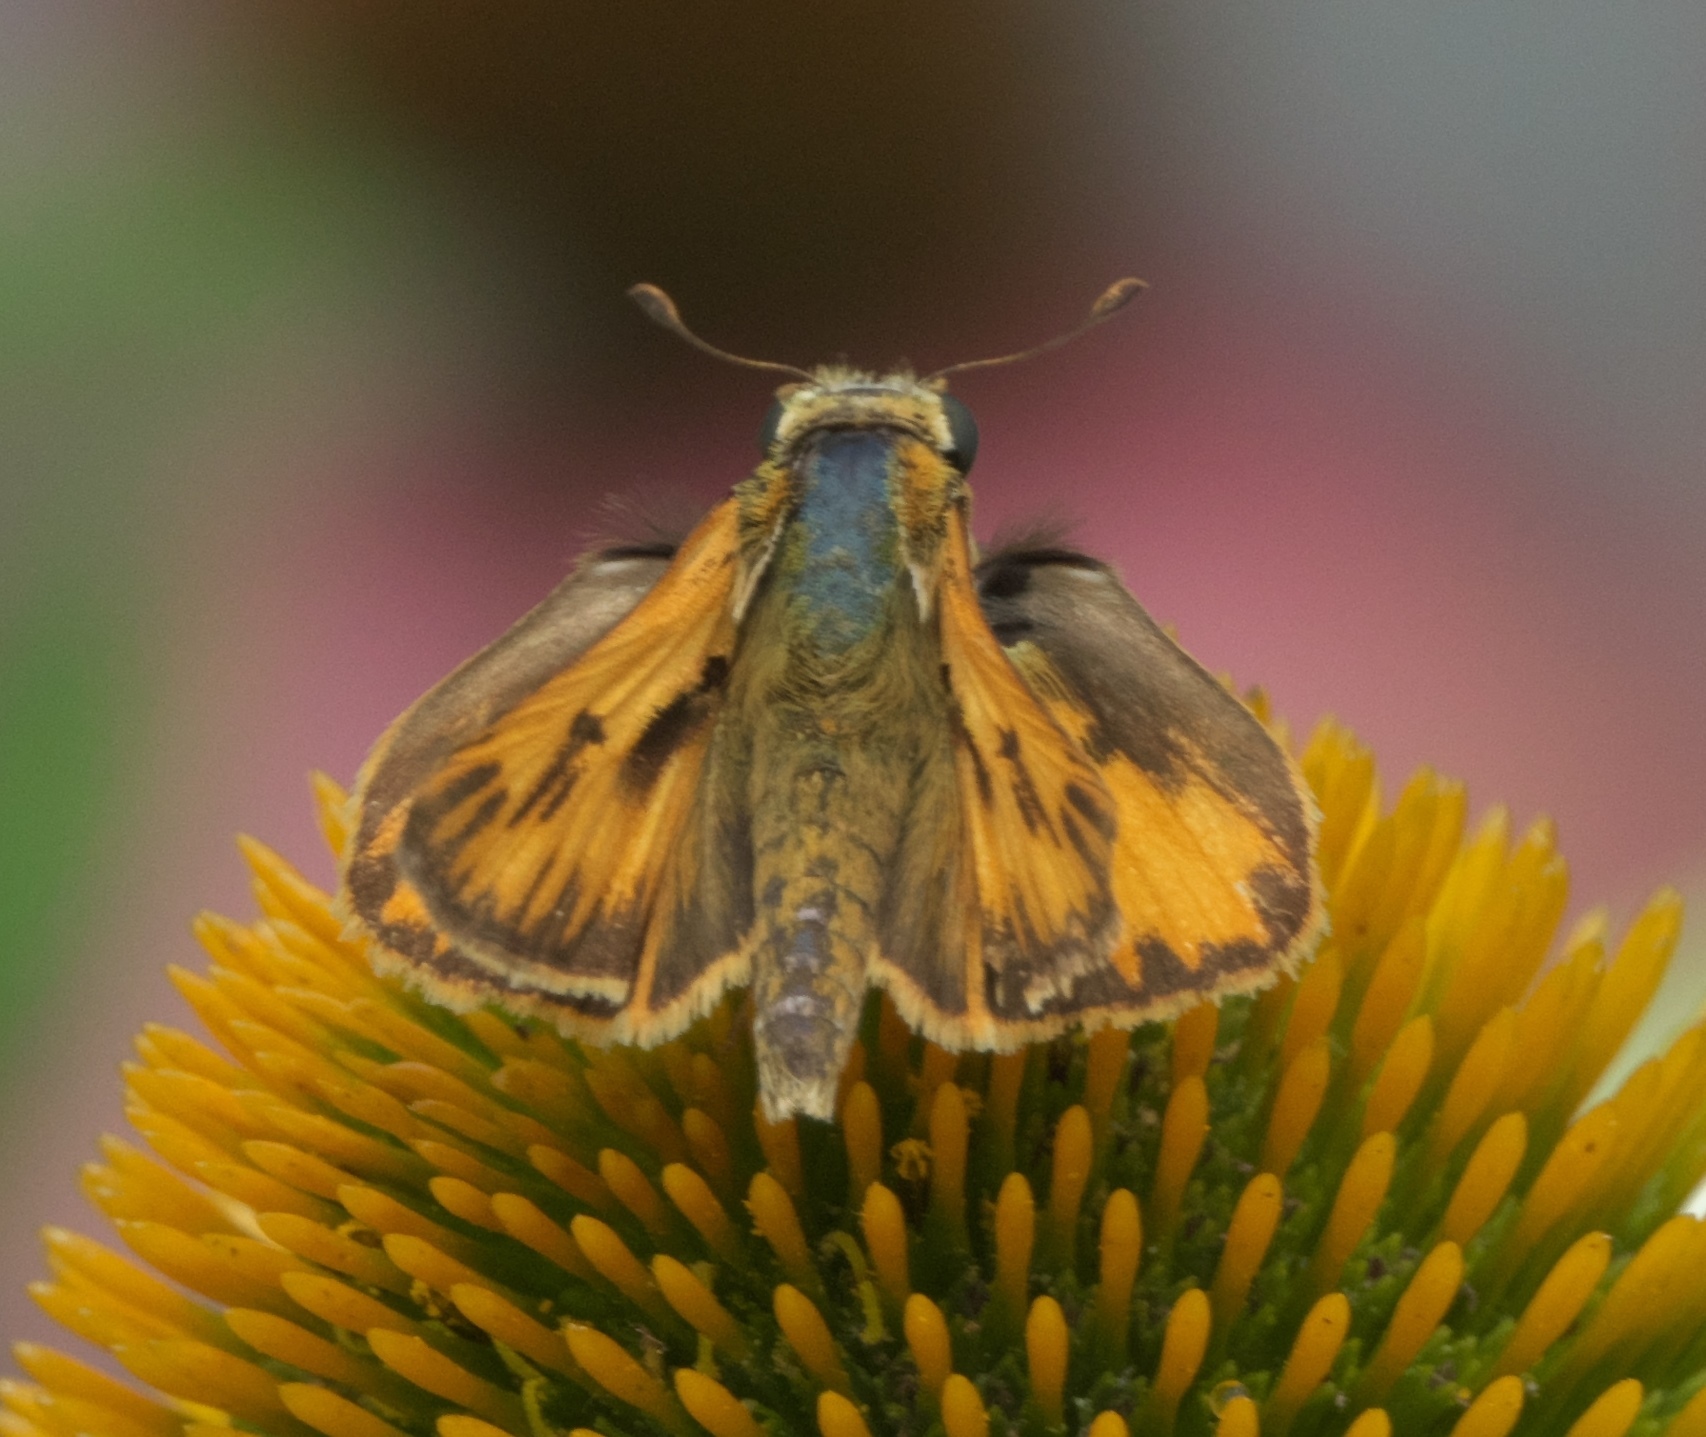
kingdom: Animalia
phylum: Arthropoda
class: Insecta
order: Lepidoptera
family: Hesperiidae
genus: Hylephila
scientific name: Hylephila phyleus
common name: Fiery skipper
